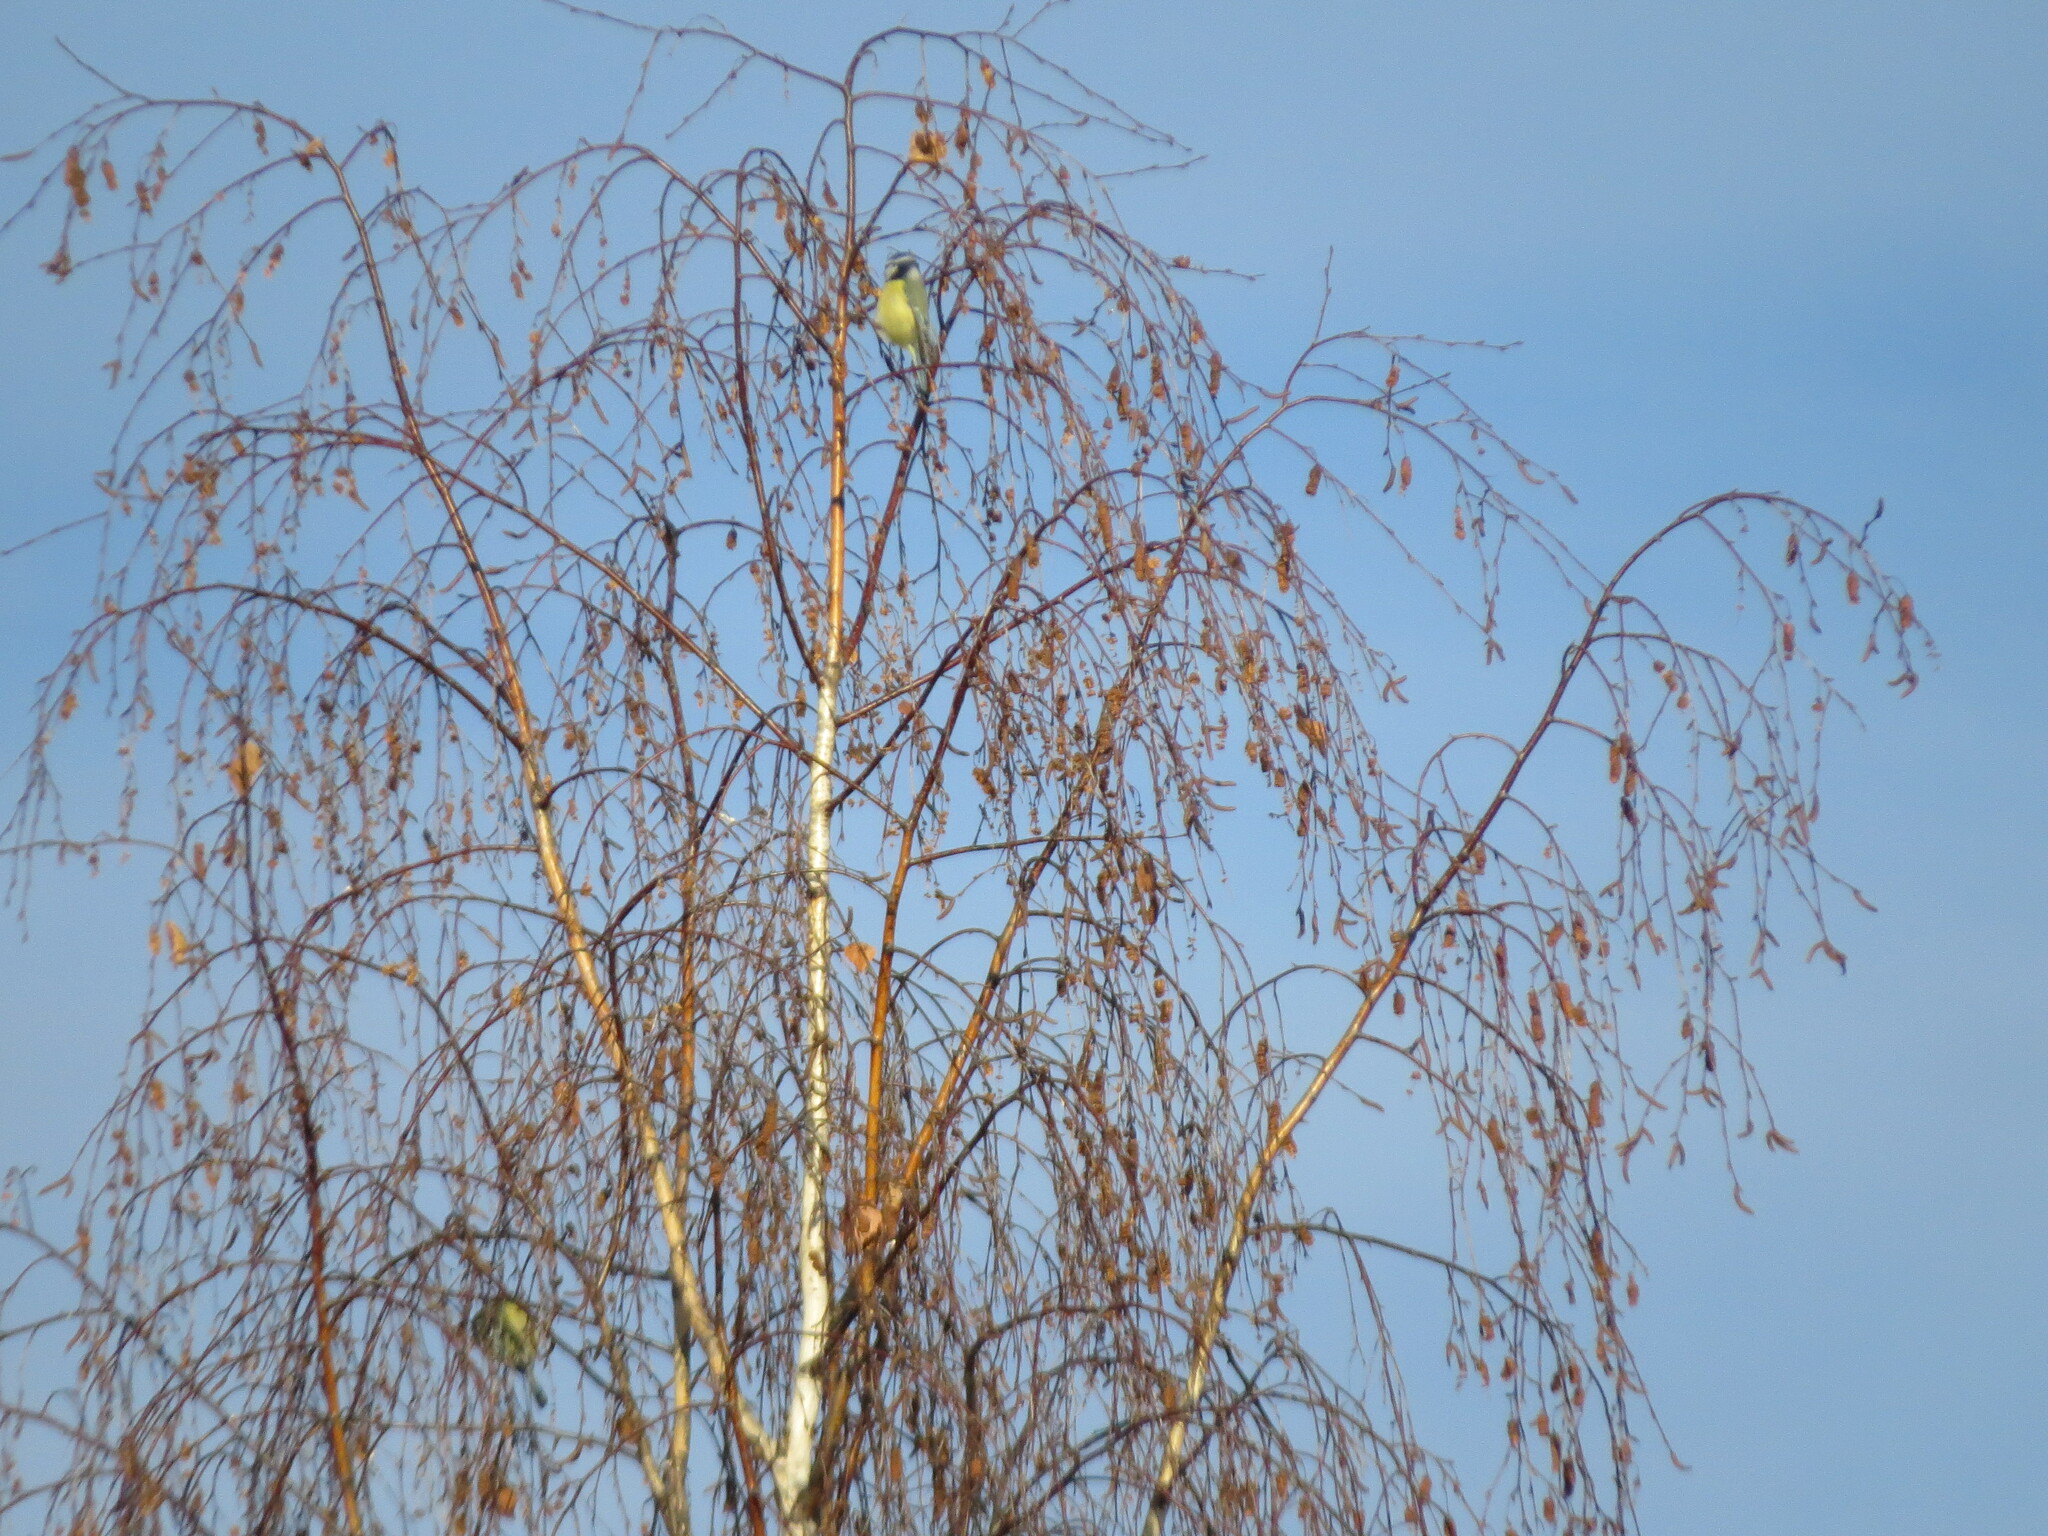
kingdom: Animalia
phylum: Chordata
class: Aves
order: Passeriformes
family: Paridae
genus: Cyanistes
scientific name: Cyanistes caeruleus
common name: Eurasian blue tit
